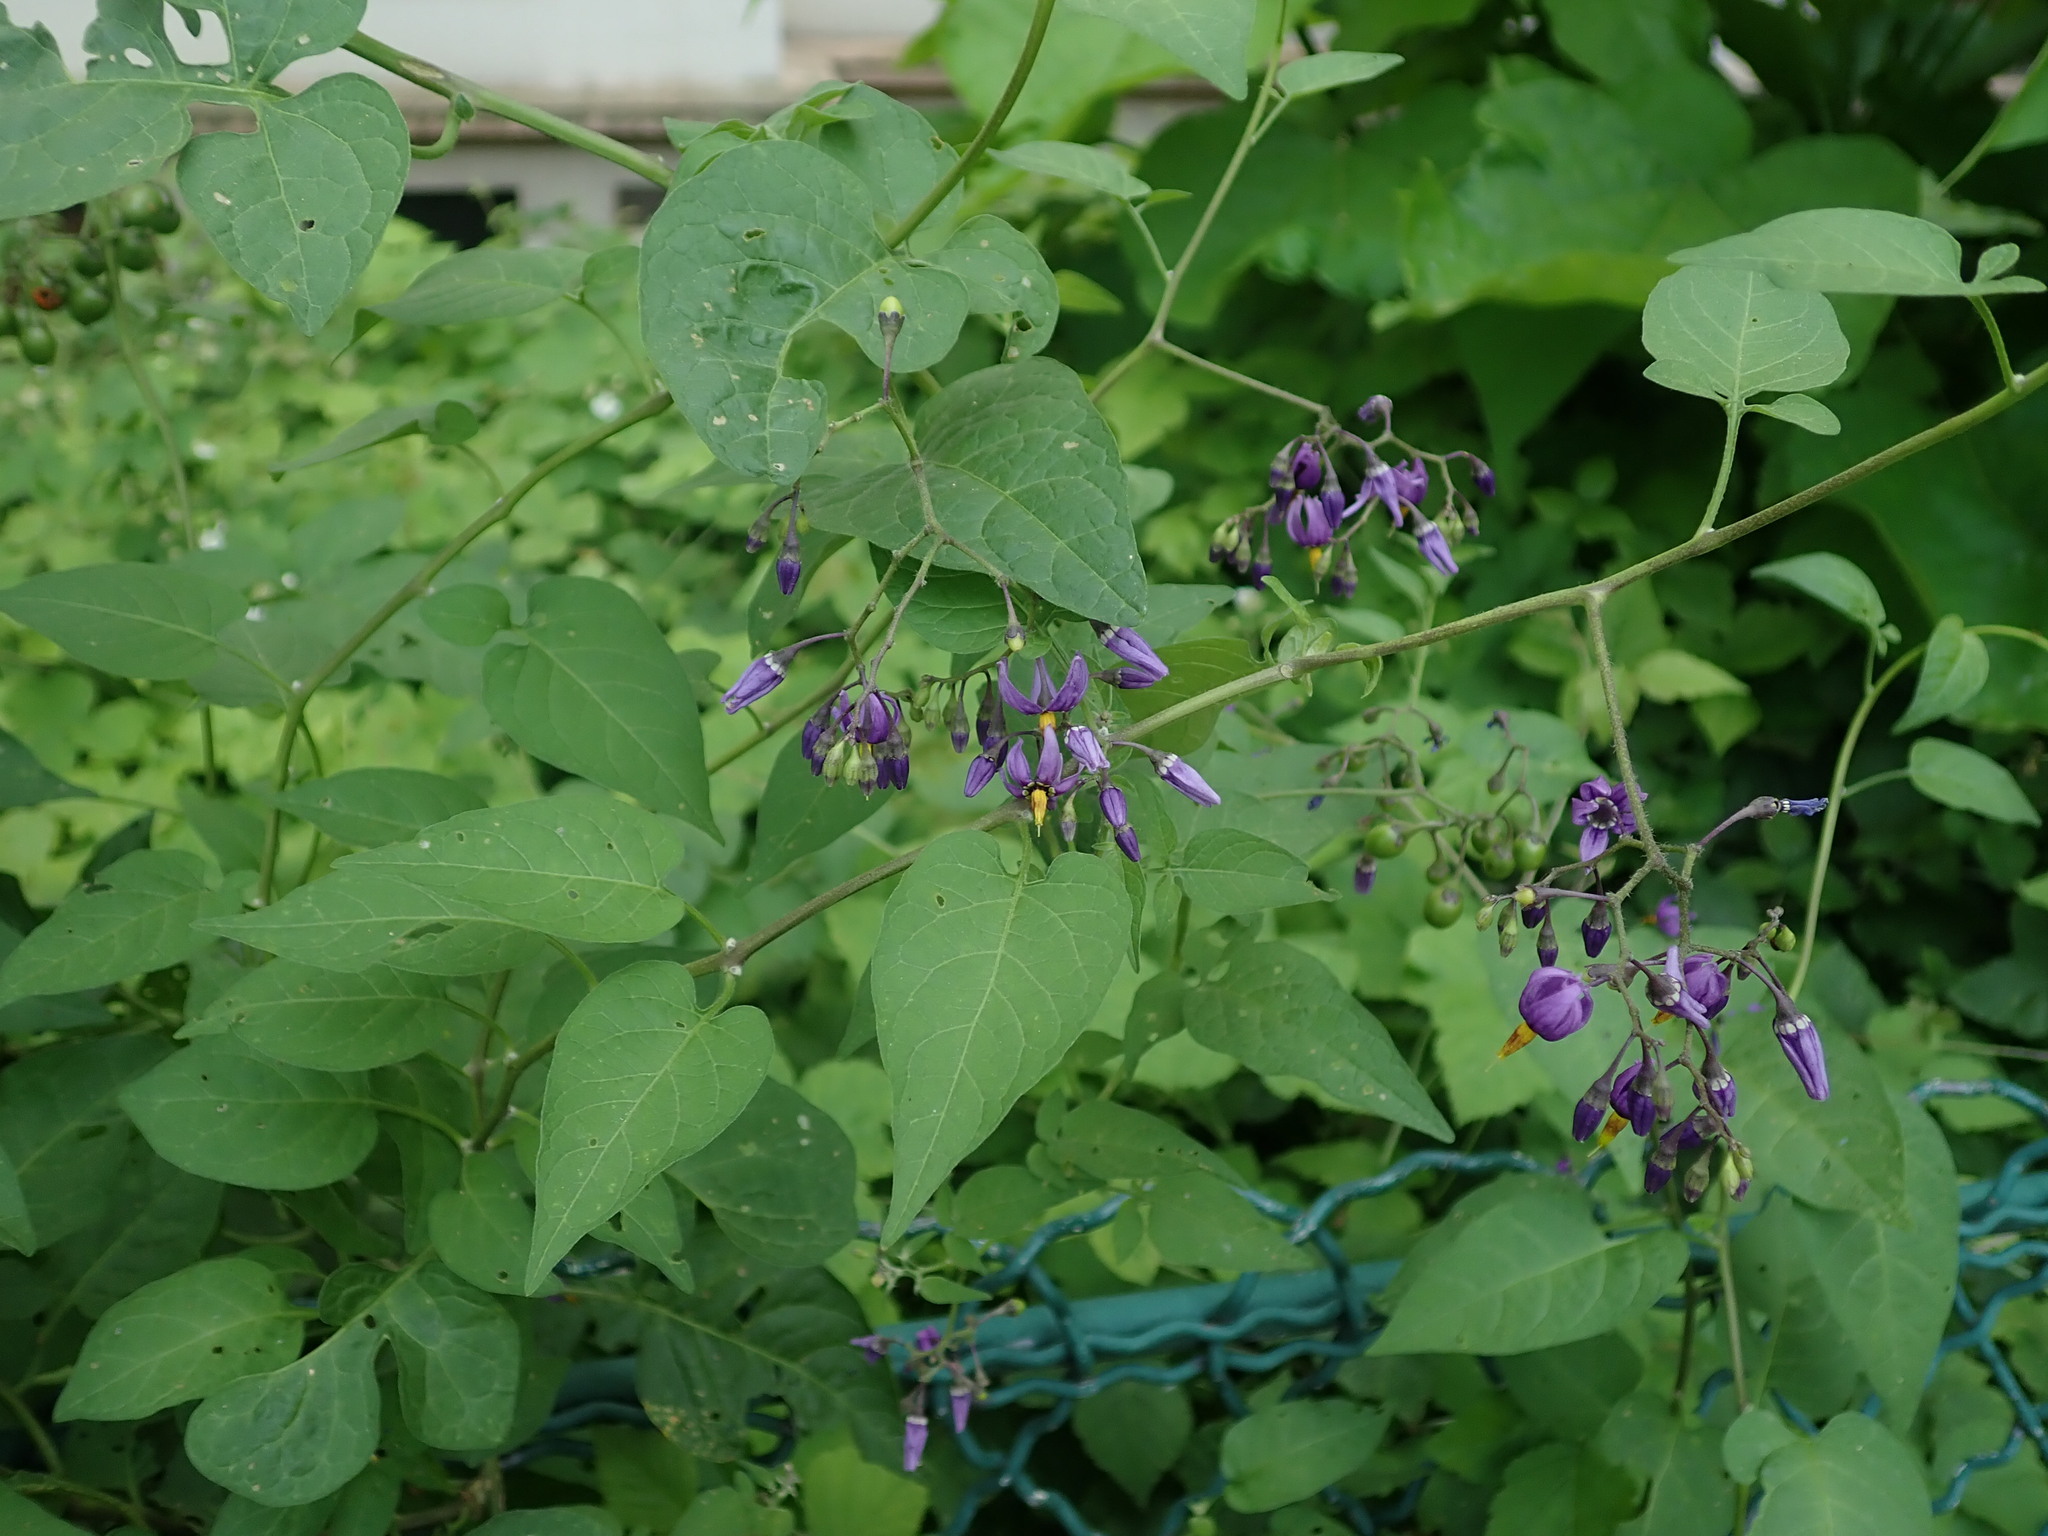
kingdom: Plantae
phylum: Tracheophyta
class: Magnoliopsida
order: Solanales
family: Solanaceae
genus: Solanum
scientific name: Solanum dulcamara
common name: Climbing nightshade
